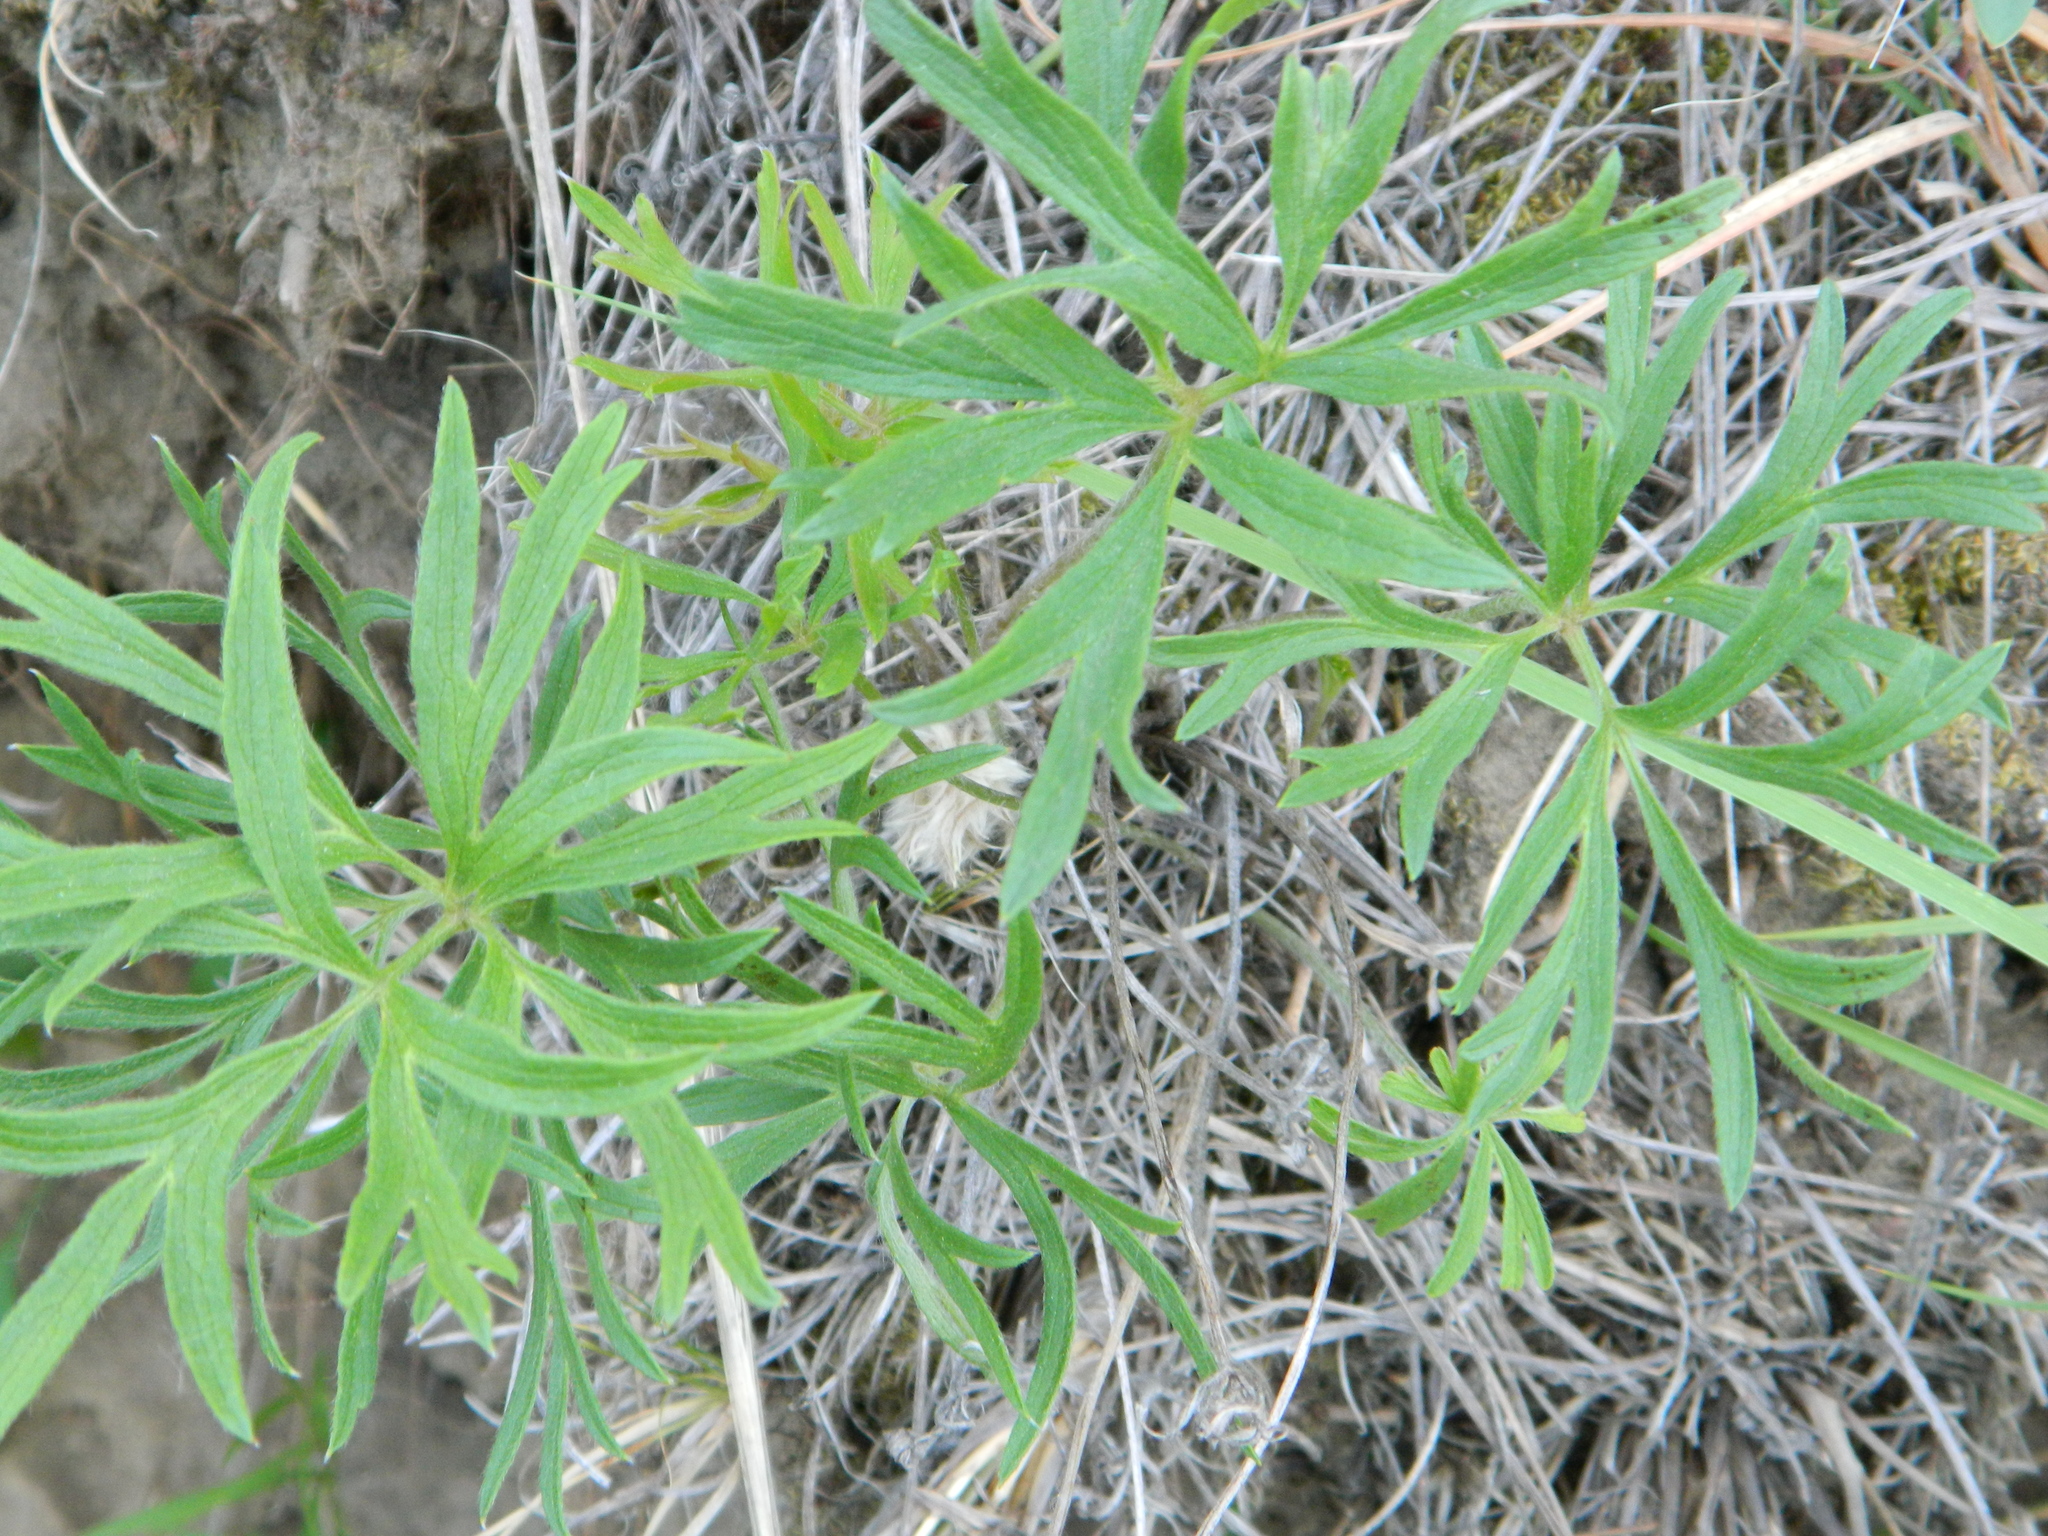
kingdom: Plantae
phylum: Tracheophyta
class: Magnoliopsida
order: Ranunculales
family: Ranunculaceae
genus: Pulsatilla
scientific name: Pulsatilla nuttalliana
